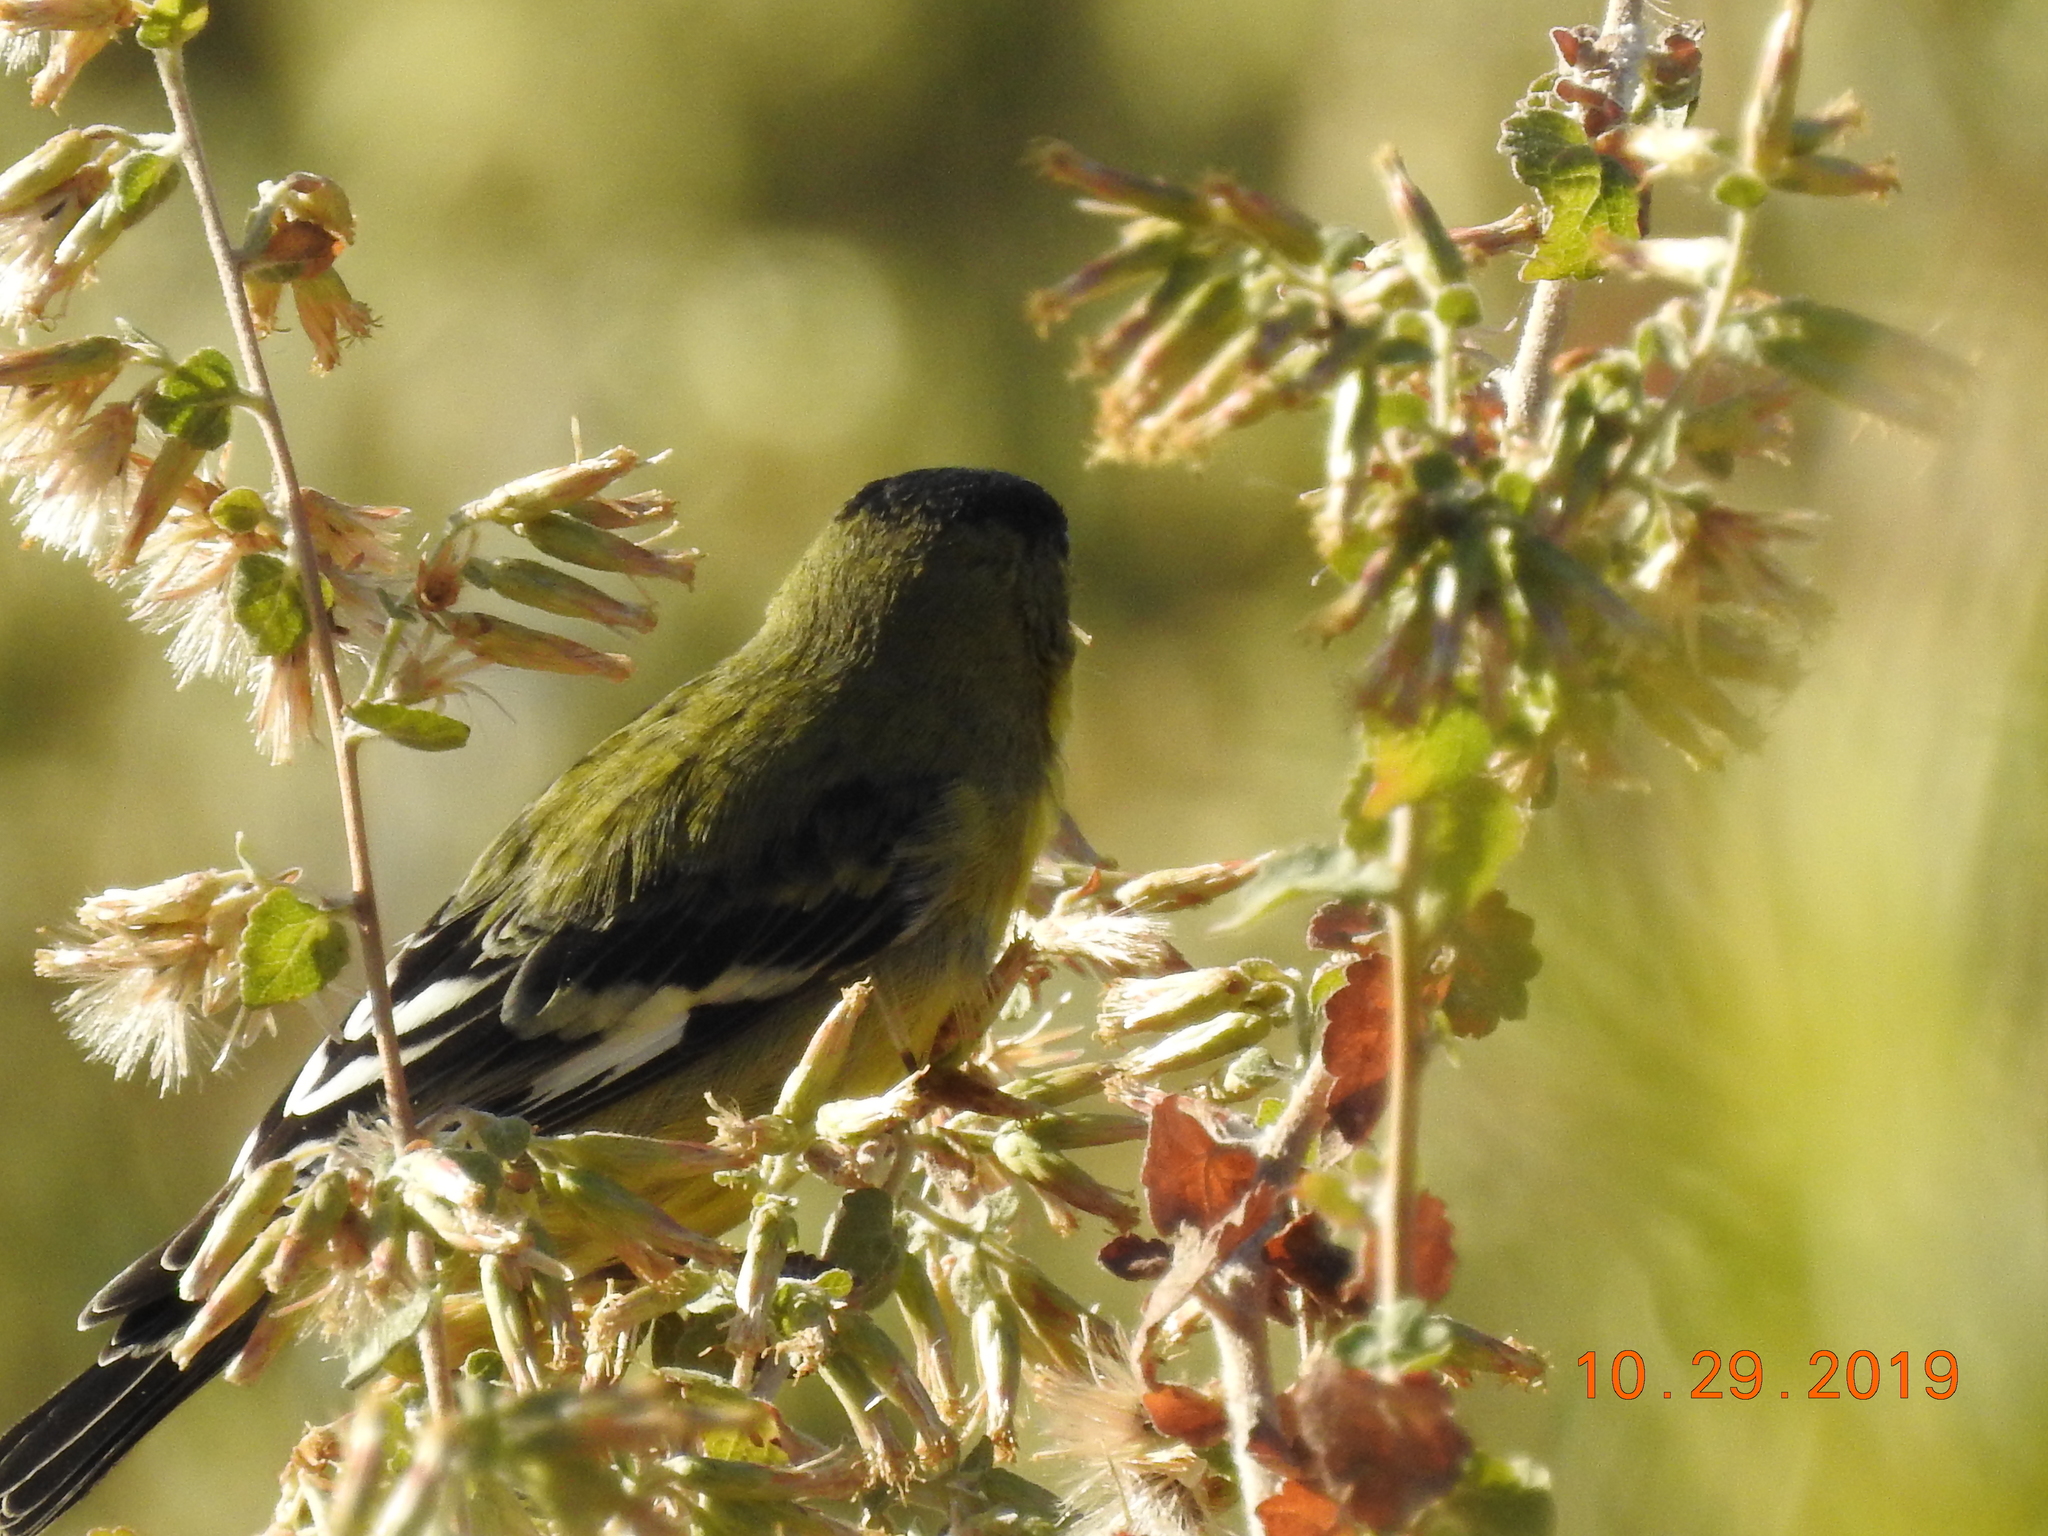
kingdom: Animalia
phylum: Chordata
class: Aves
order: Passeriformes
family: Fringillidae
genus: Spinus
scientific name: Spinus psaltria
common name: Lesser goldfinch
